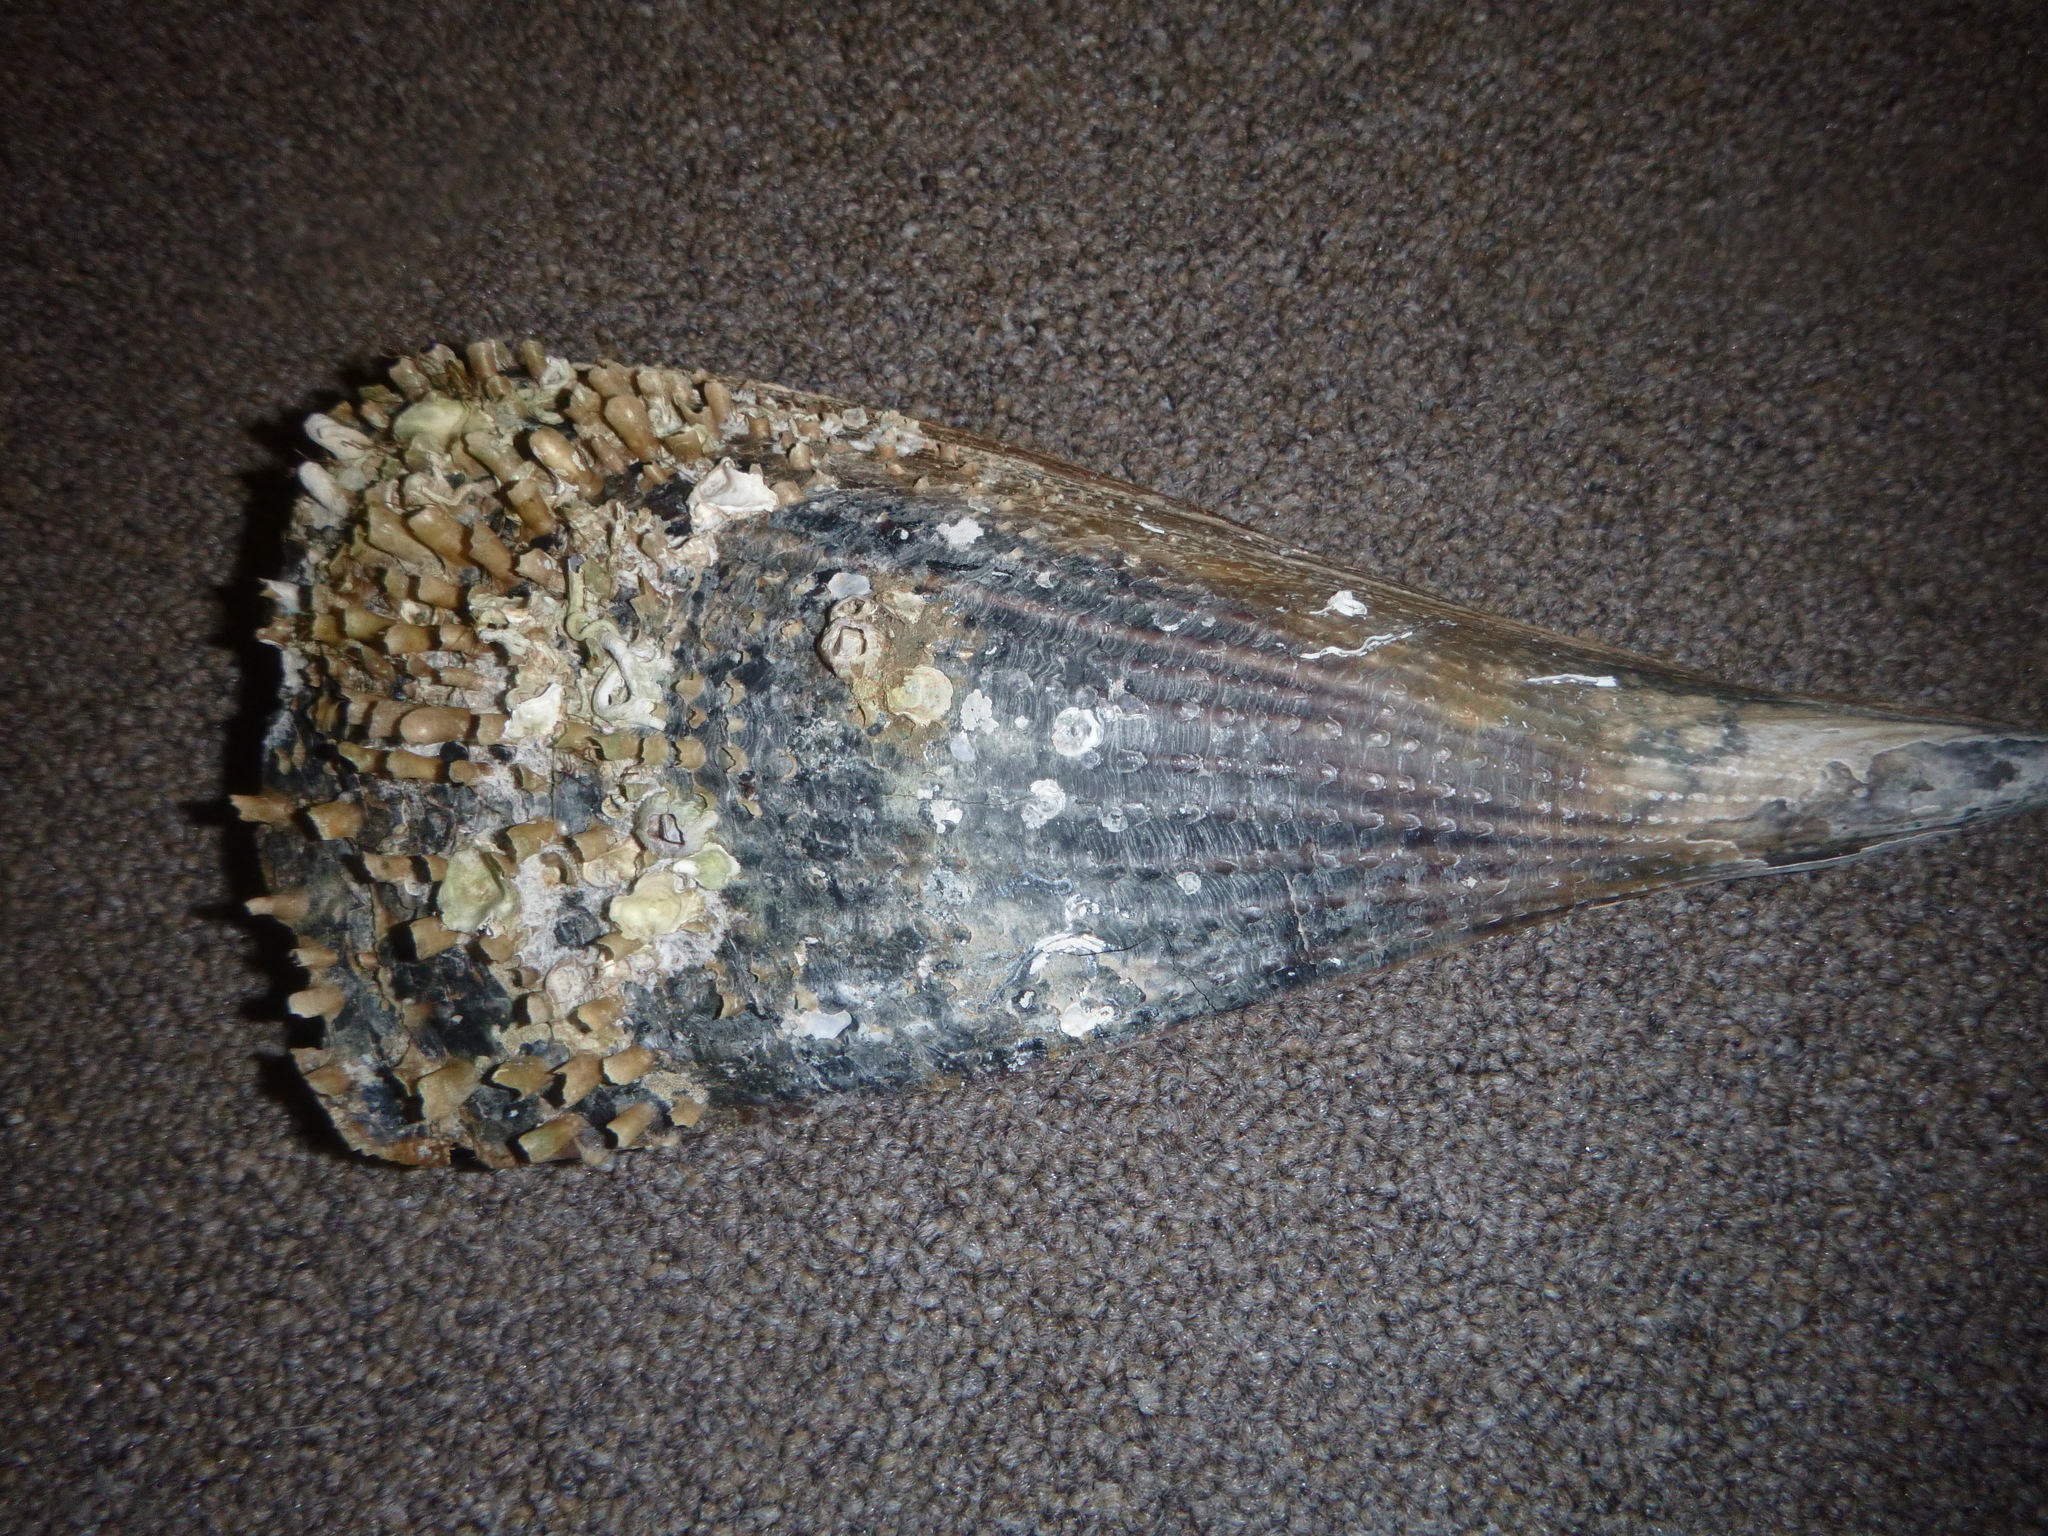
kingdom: Animalia
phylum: Mollusca
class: Bivalvia
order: Ostreida
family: Pinnidae
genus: Atrina
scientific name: Atrina zelandica
